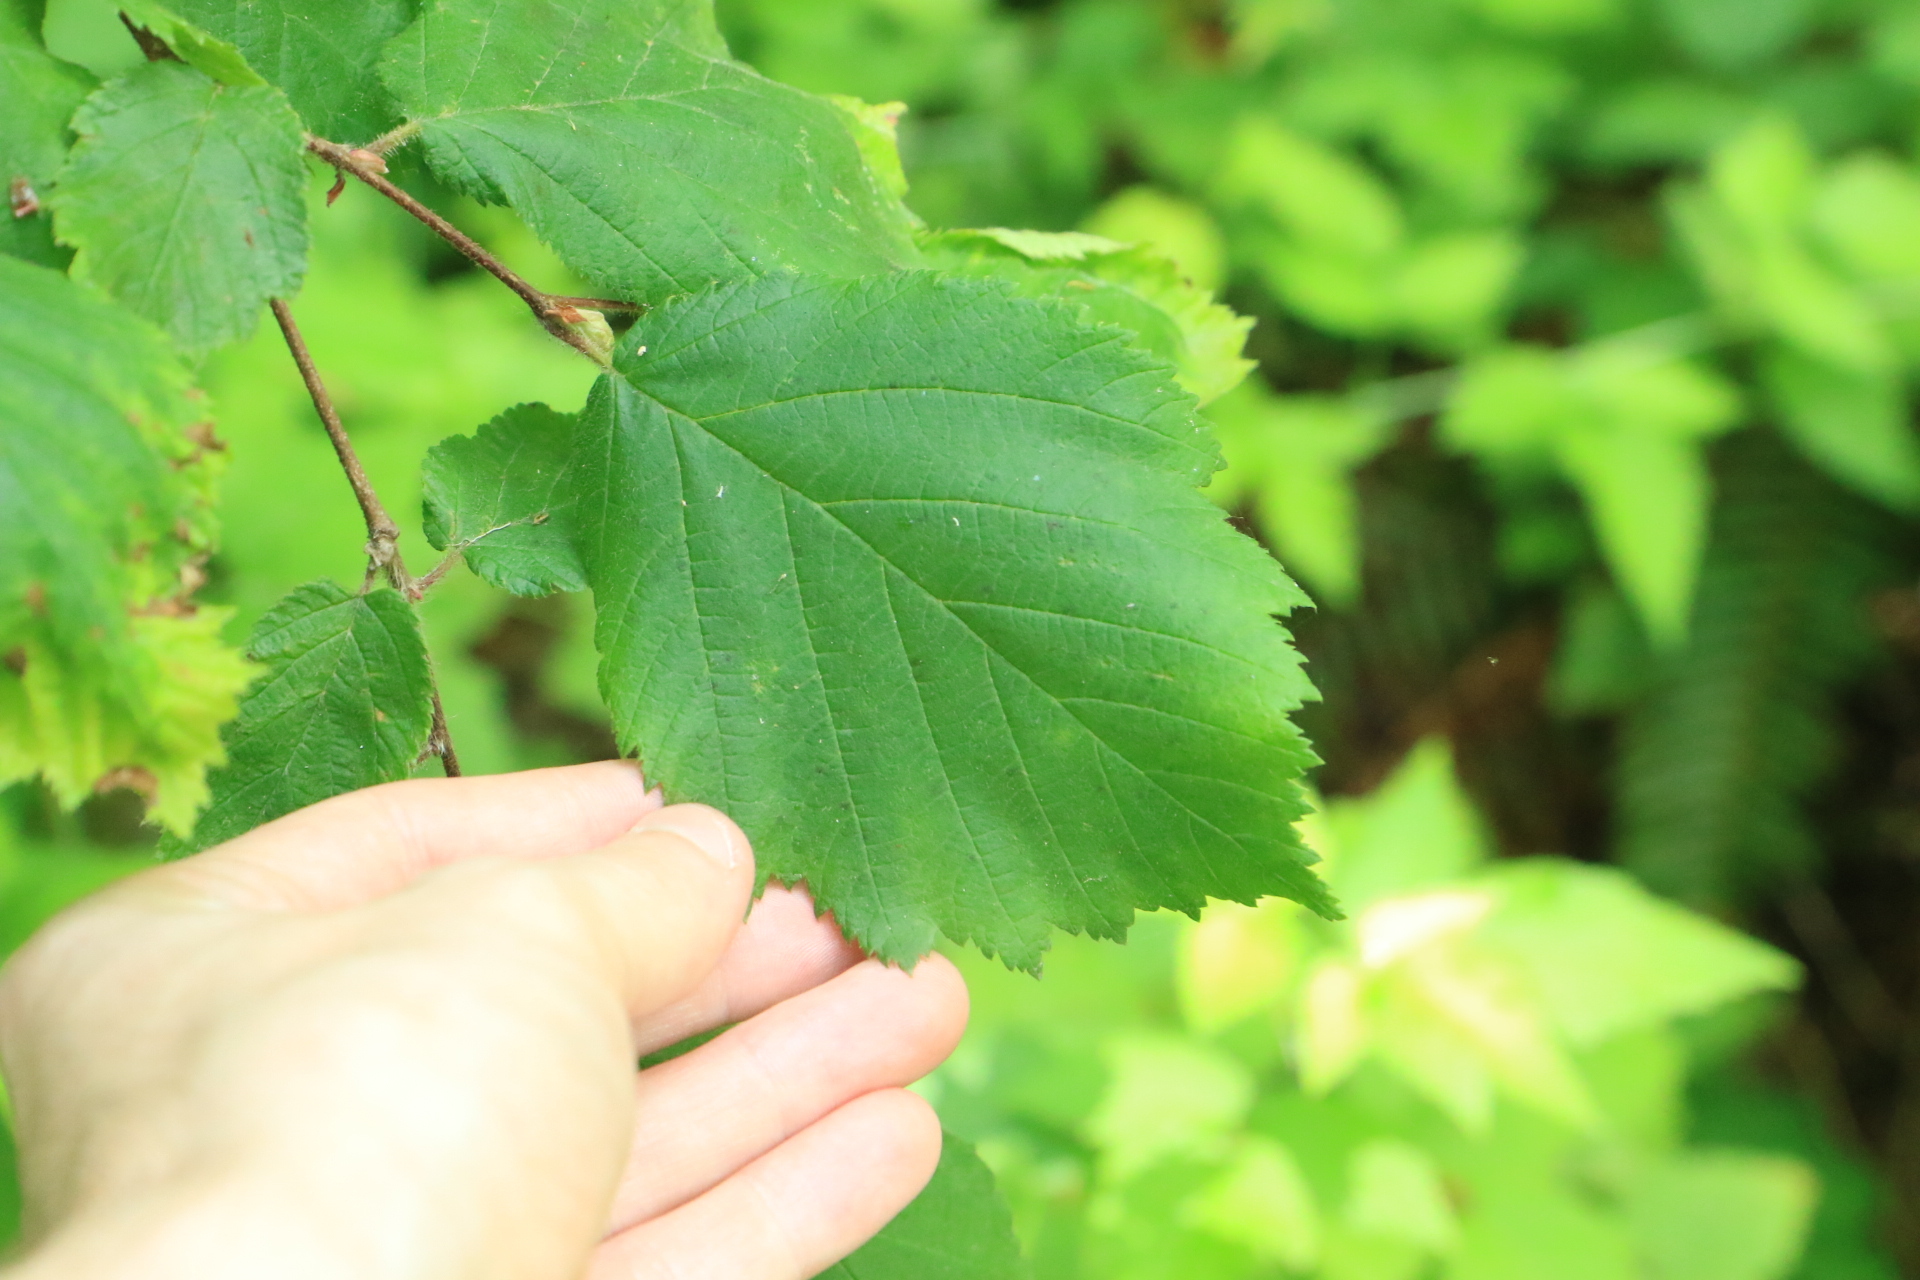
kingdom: Plantae
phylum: Tracheophyta
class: Magnoliopsida
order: Fagales
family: Betulaceae
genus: Corylus
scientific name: Corylus cornuta
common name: Beaked hazel
